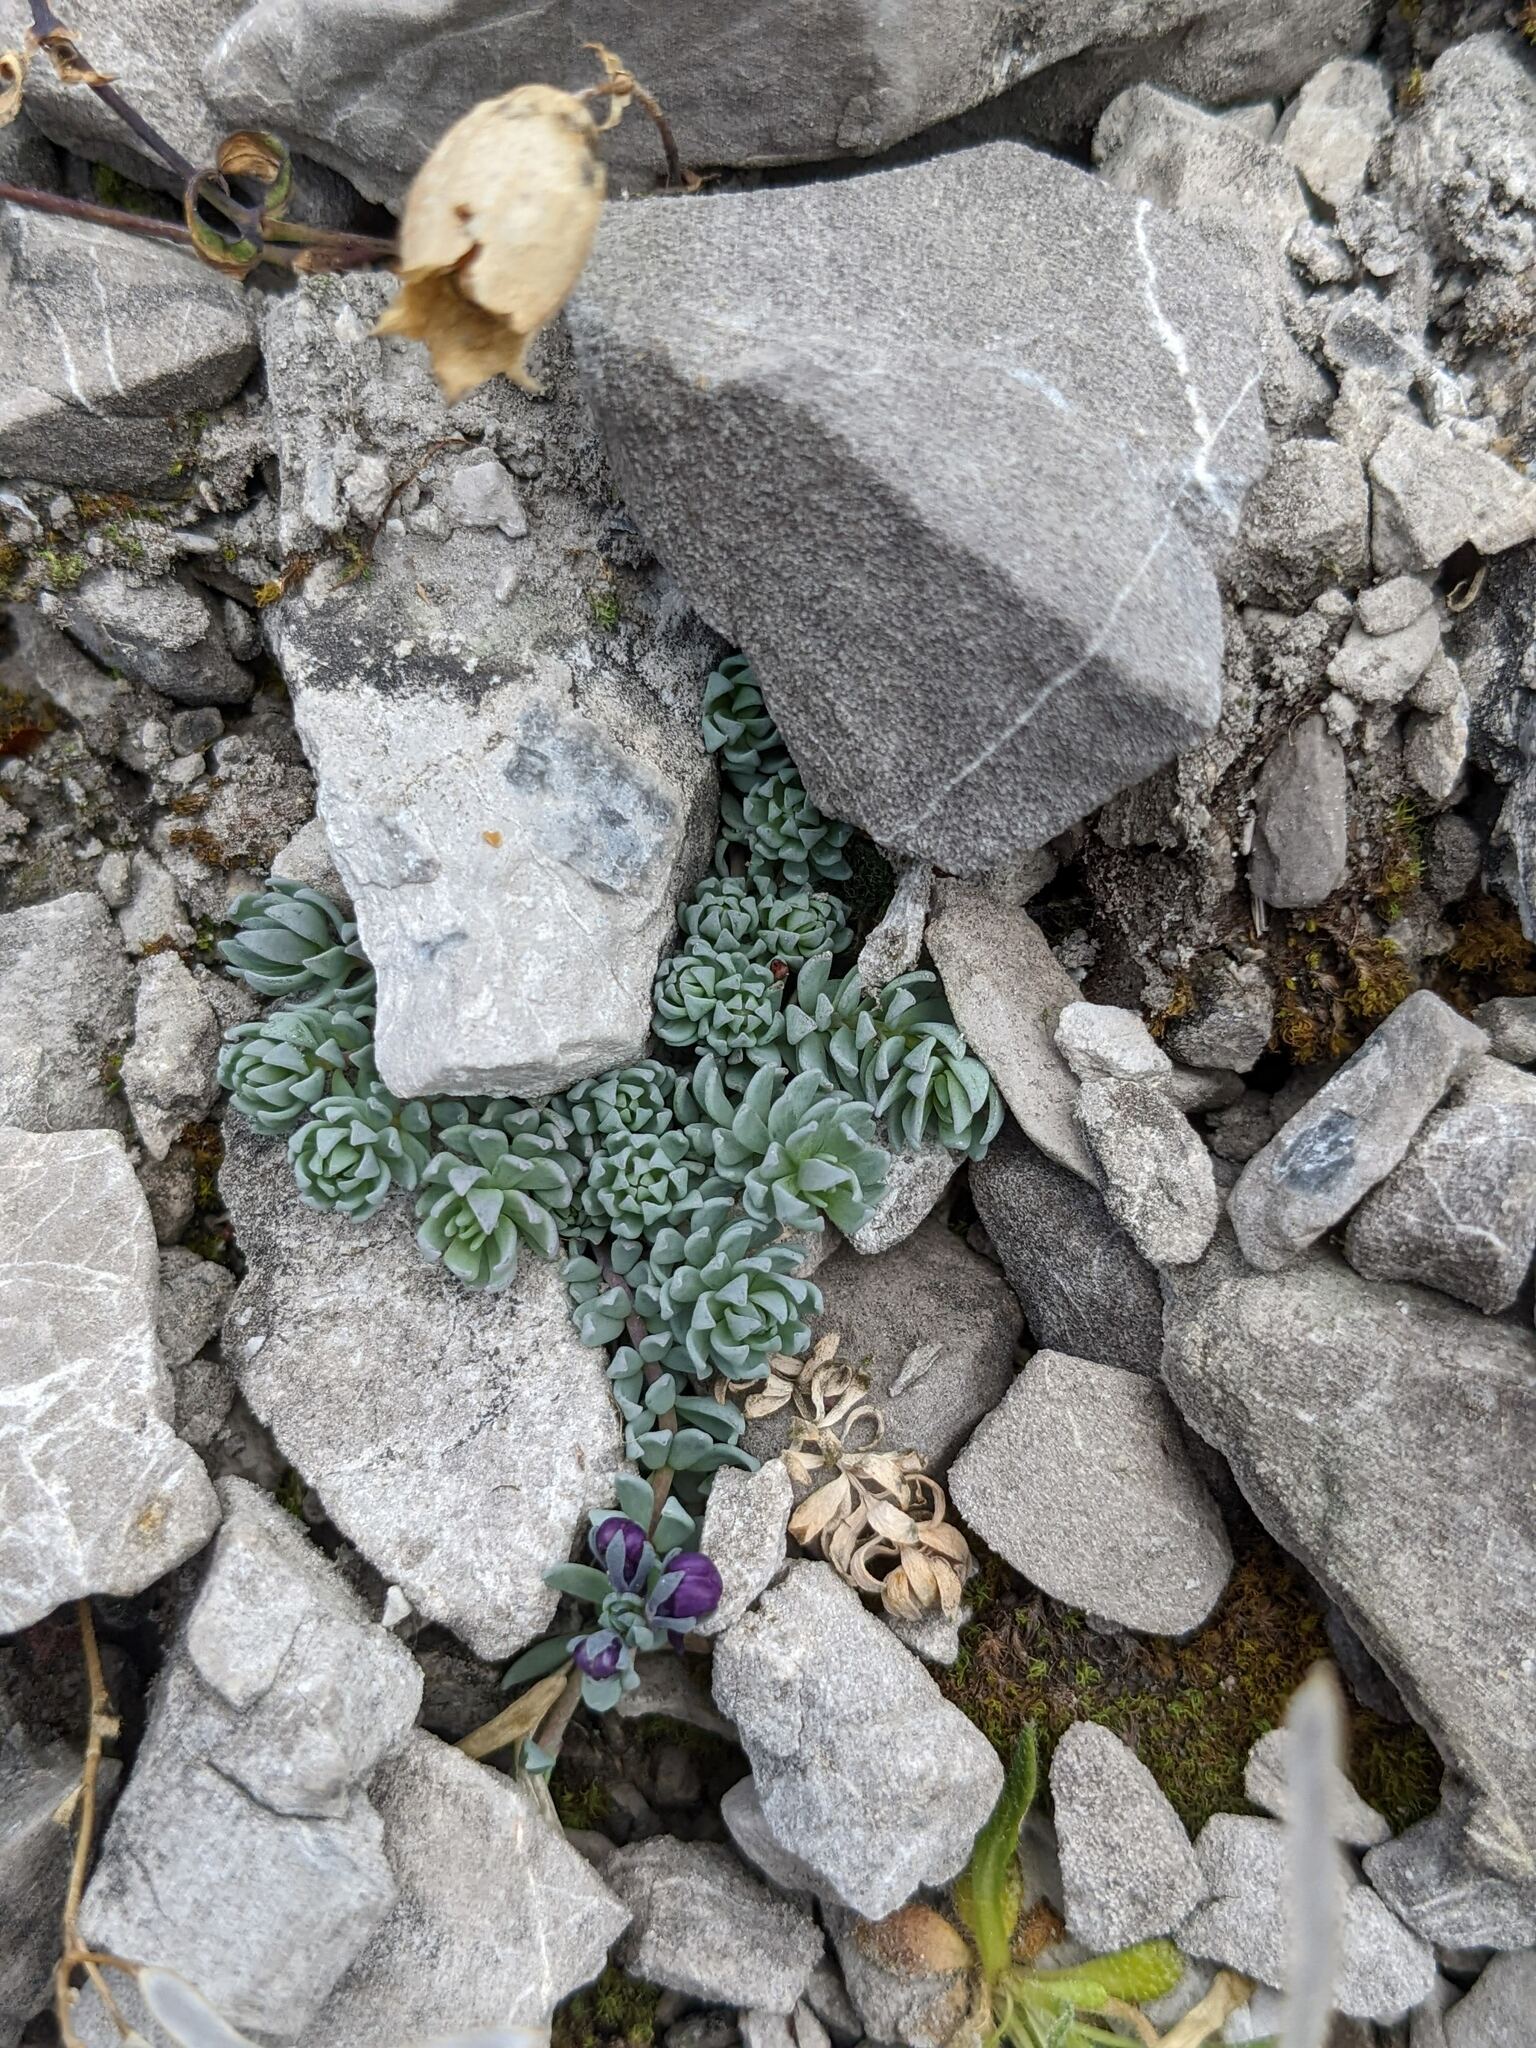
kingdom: Plantae
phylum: Tracheophyta
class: Magnoliopsida
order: Lamiales
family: Plantaginaceae
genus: Linaria
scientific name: Linaria alpina
